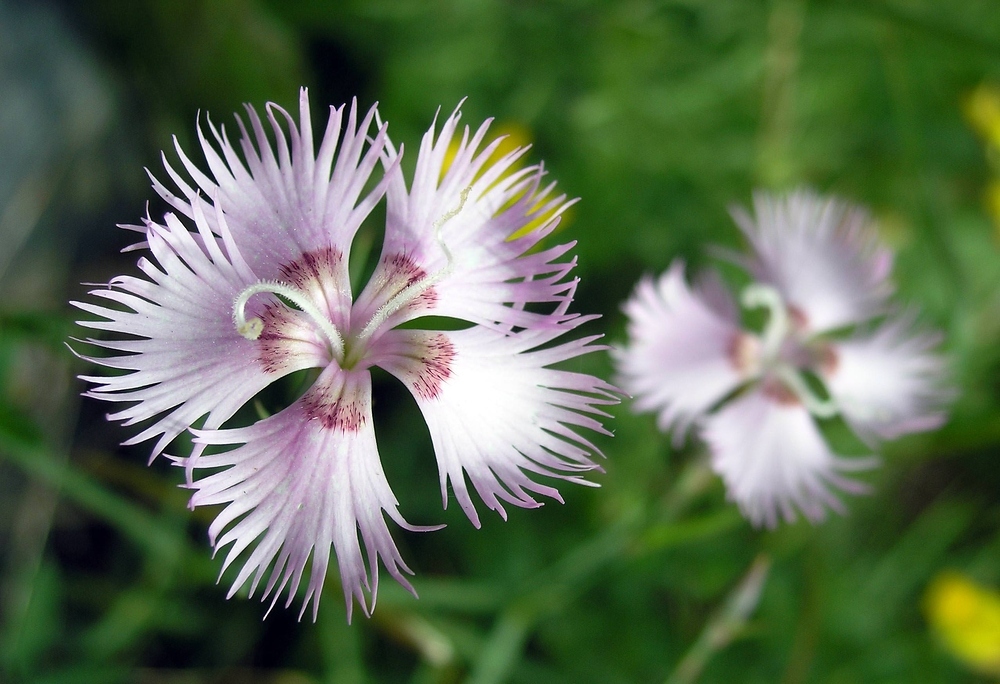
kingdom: Plantae
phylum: Tracheophyta
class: Magnoliopsida
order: Caryophyllales
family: Caryophyllaceae
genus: Dianthus
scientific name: Dianthus hyssopifolius
